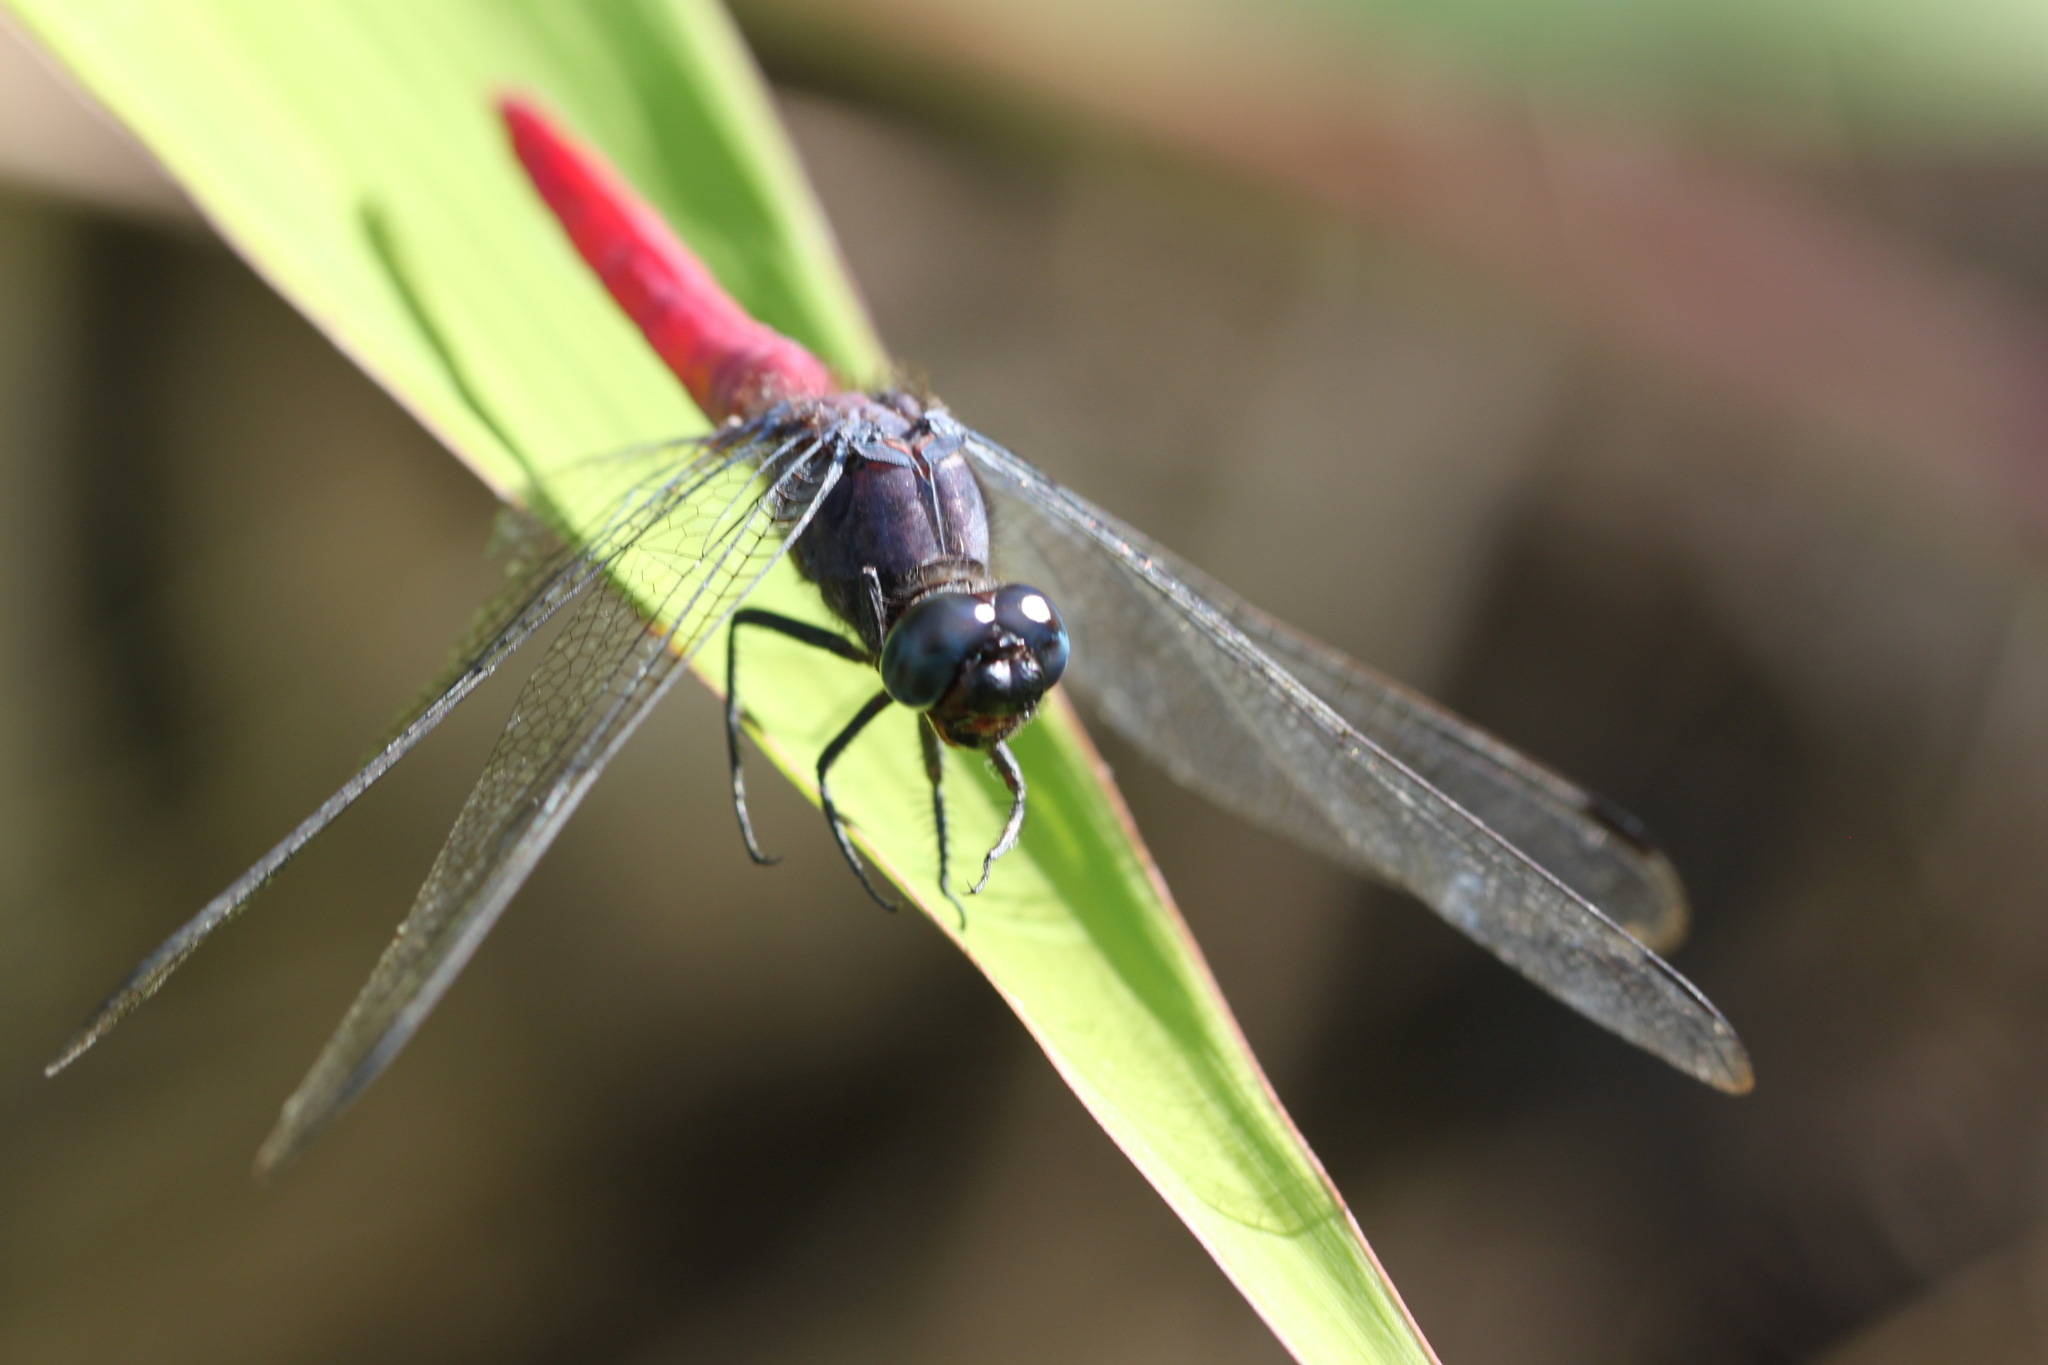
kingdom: Animalia
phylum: Arthropoda
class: Insecta
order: Odonata
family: Libellulidae
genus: Orthetrum
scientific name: Orthetrum pruinosum
